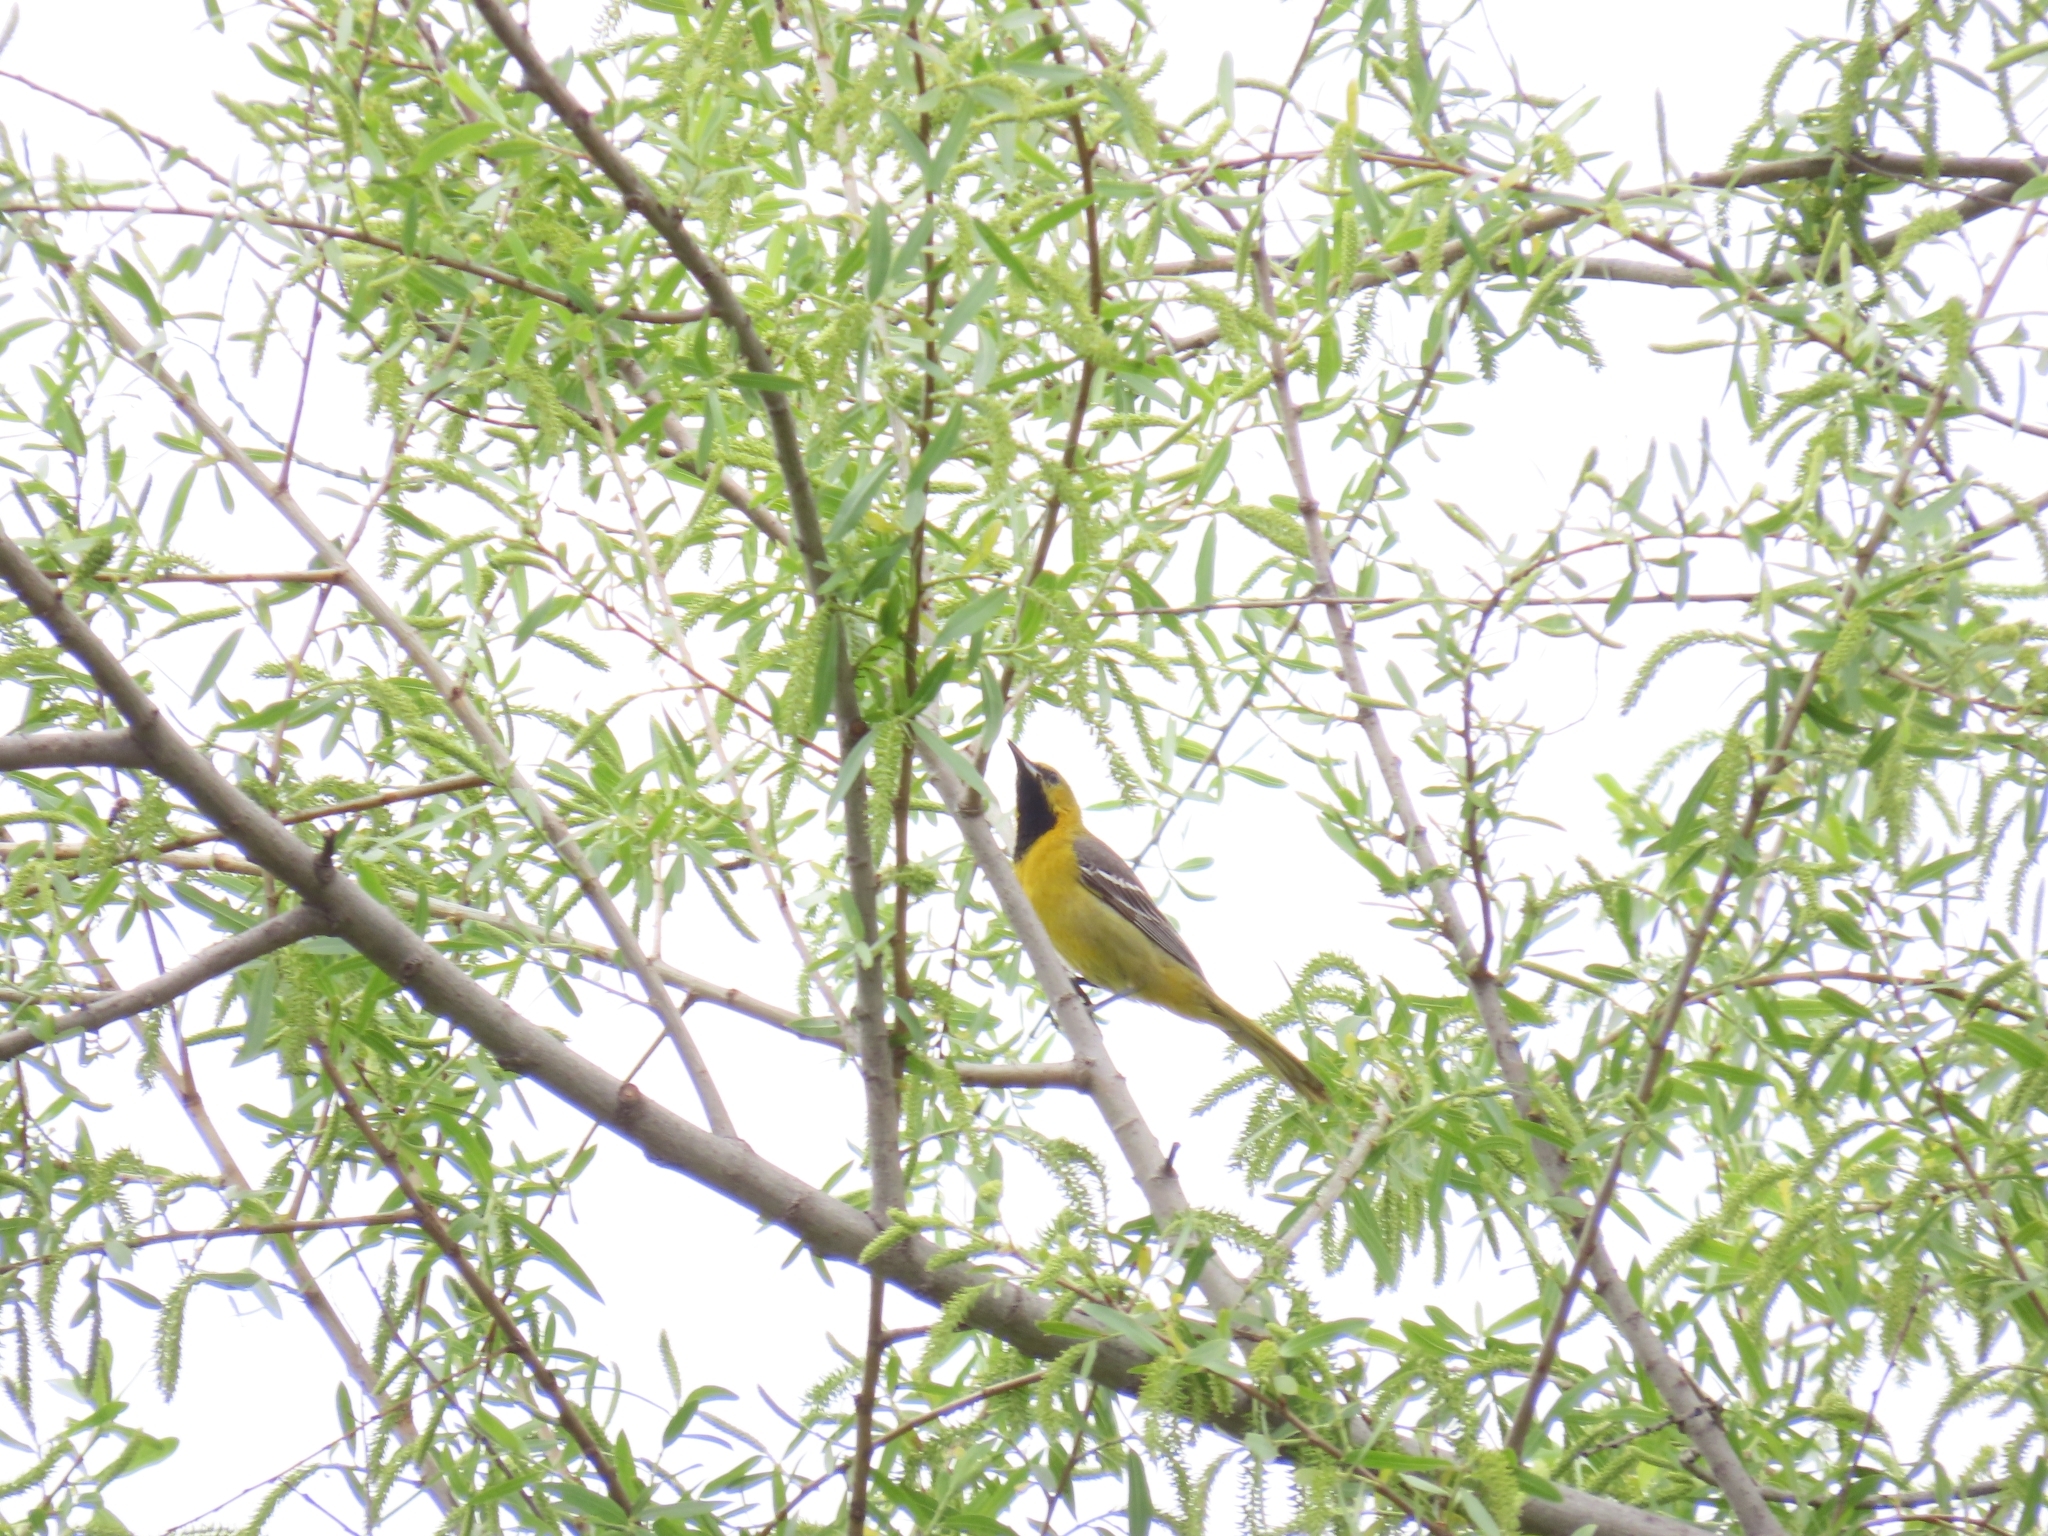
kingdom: Animalia
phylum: Chordata
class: Aves
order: Passeriformes
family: Icteridae
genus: Icterus
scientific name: Icterus cucullatus
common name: Hooded oriole
